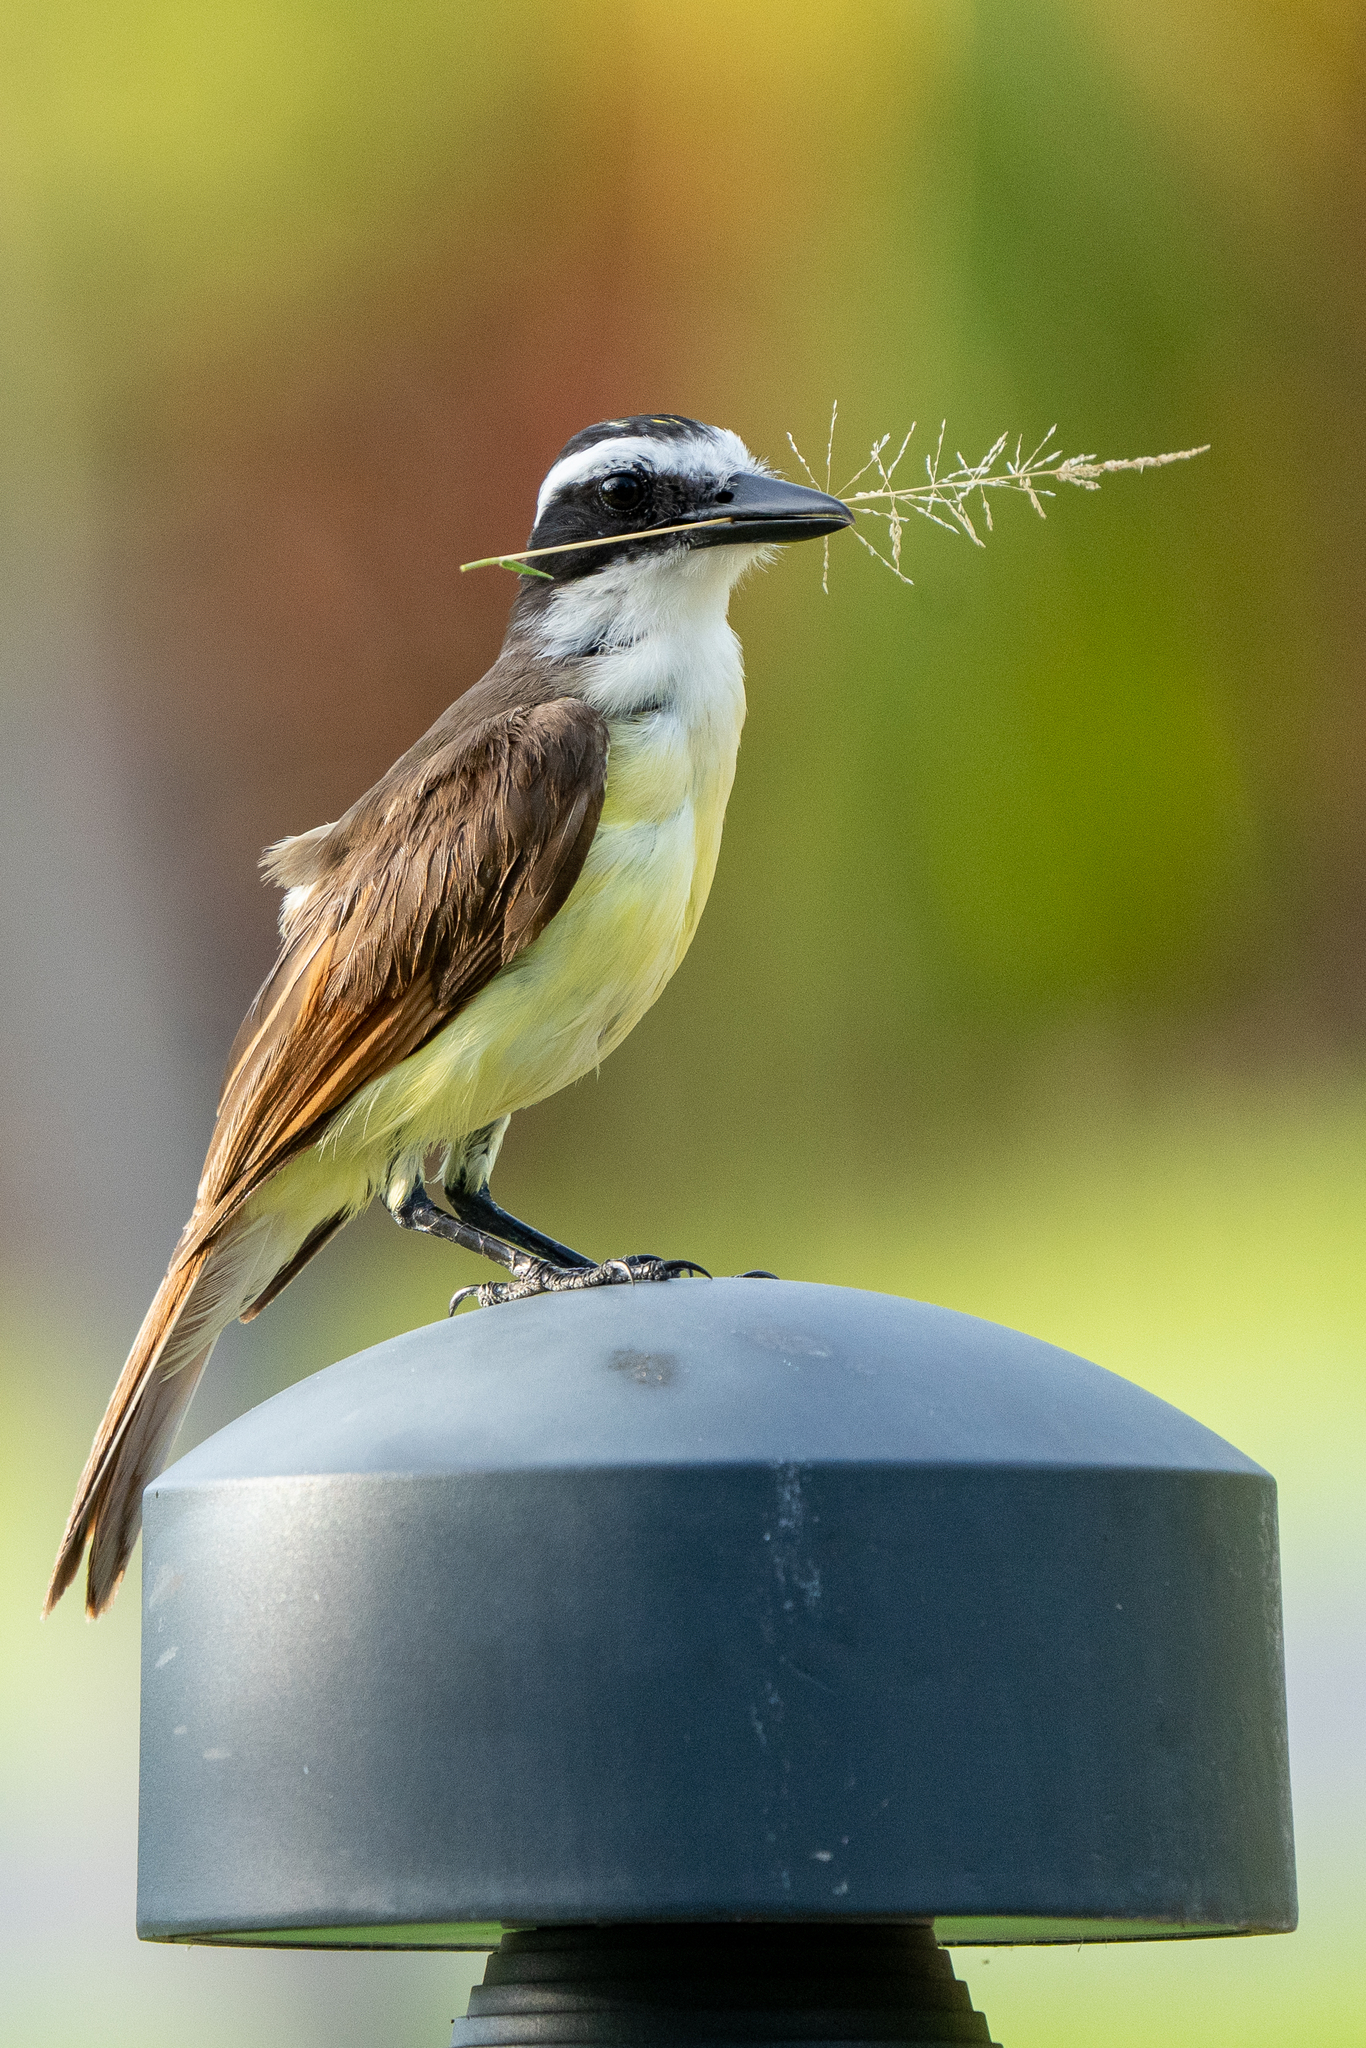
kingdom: Animalia
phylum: Chordata
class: Aves
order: Passeriformes
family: Tyrannidae
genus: Pitangus
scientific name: Pitangus sulphuratus
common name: Great kiskadee
